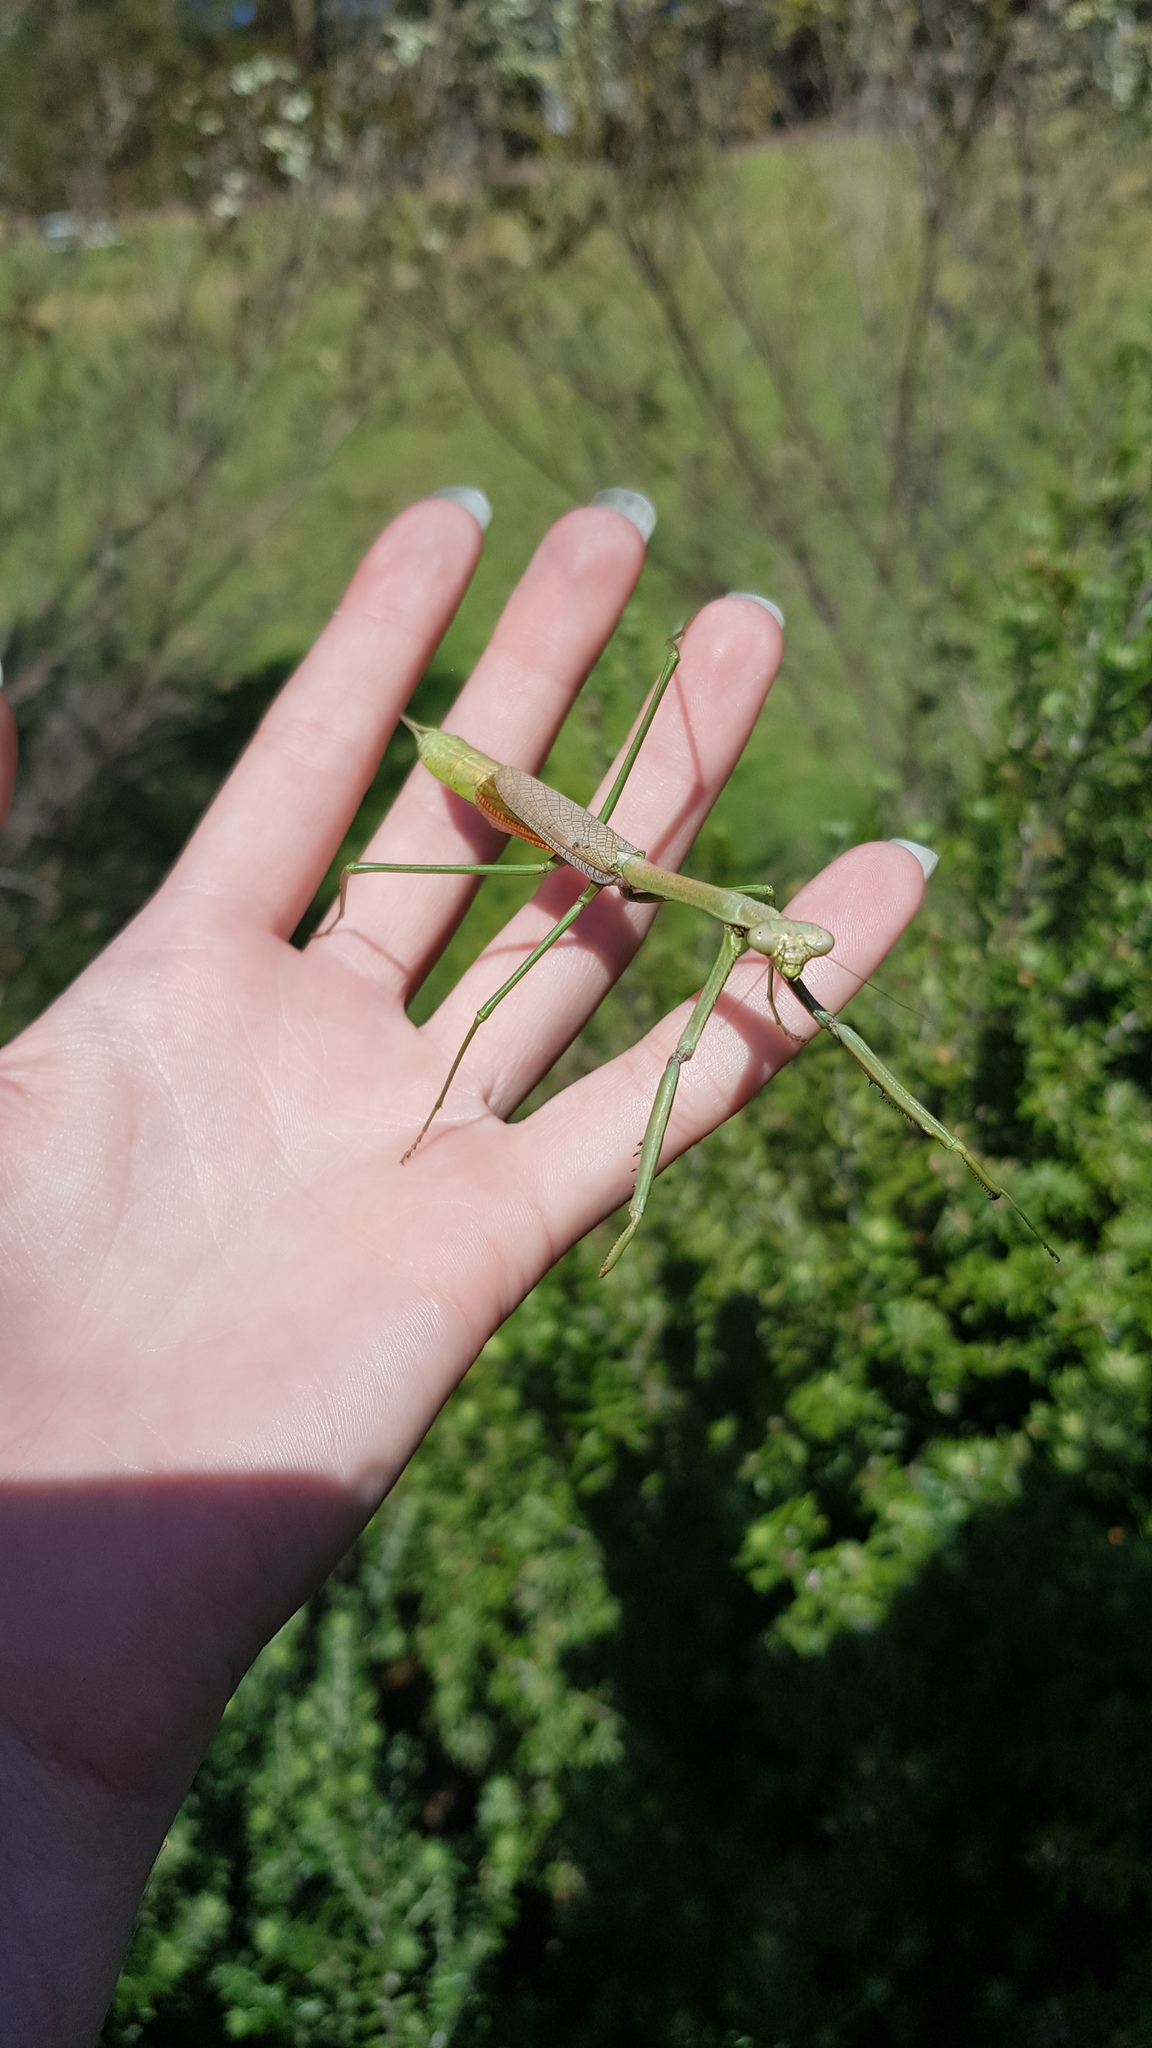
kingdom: Animalia
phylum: Arthropoda
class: Insecta
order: Mantodea
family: Mantidae
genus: Archimantis
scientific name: Archimantis latistyla
